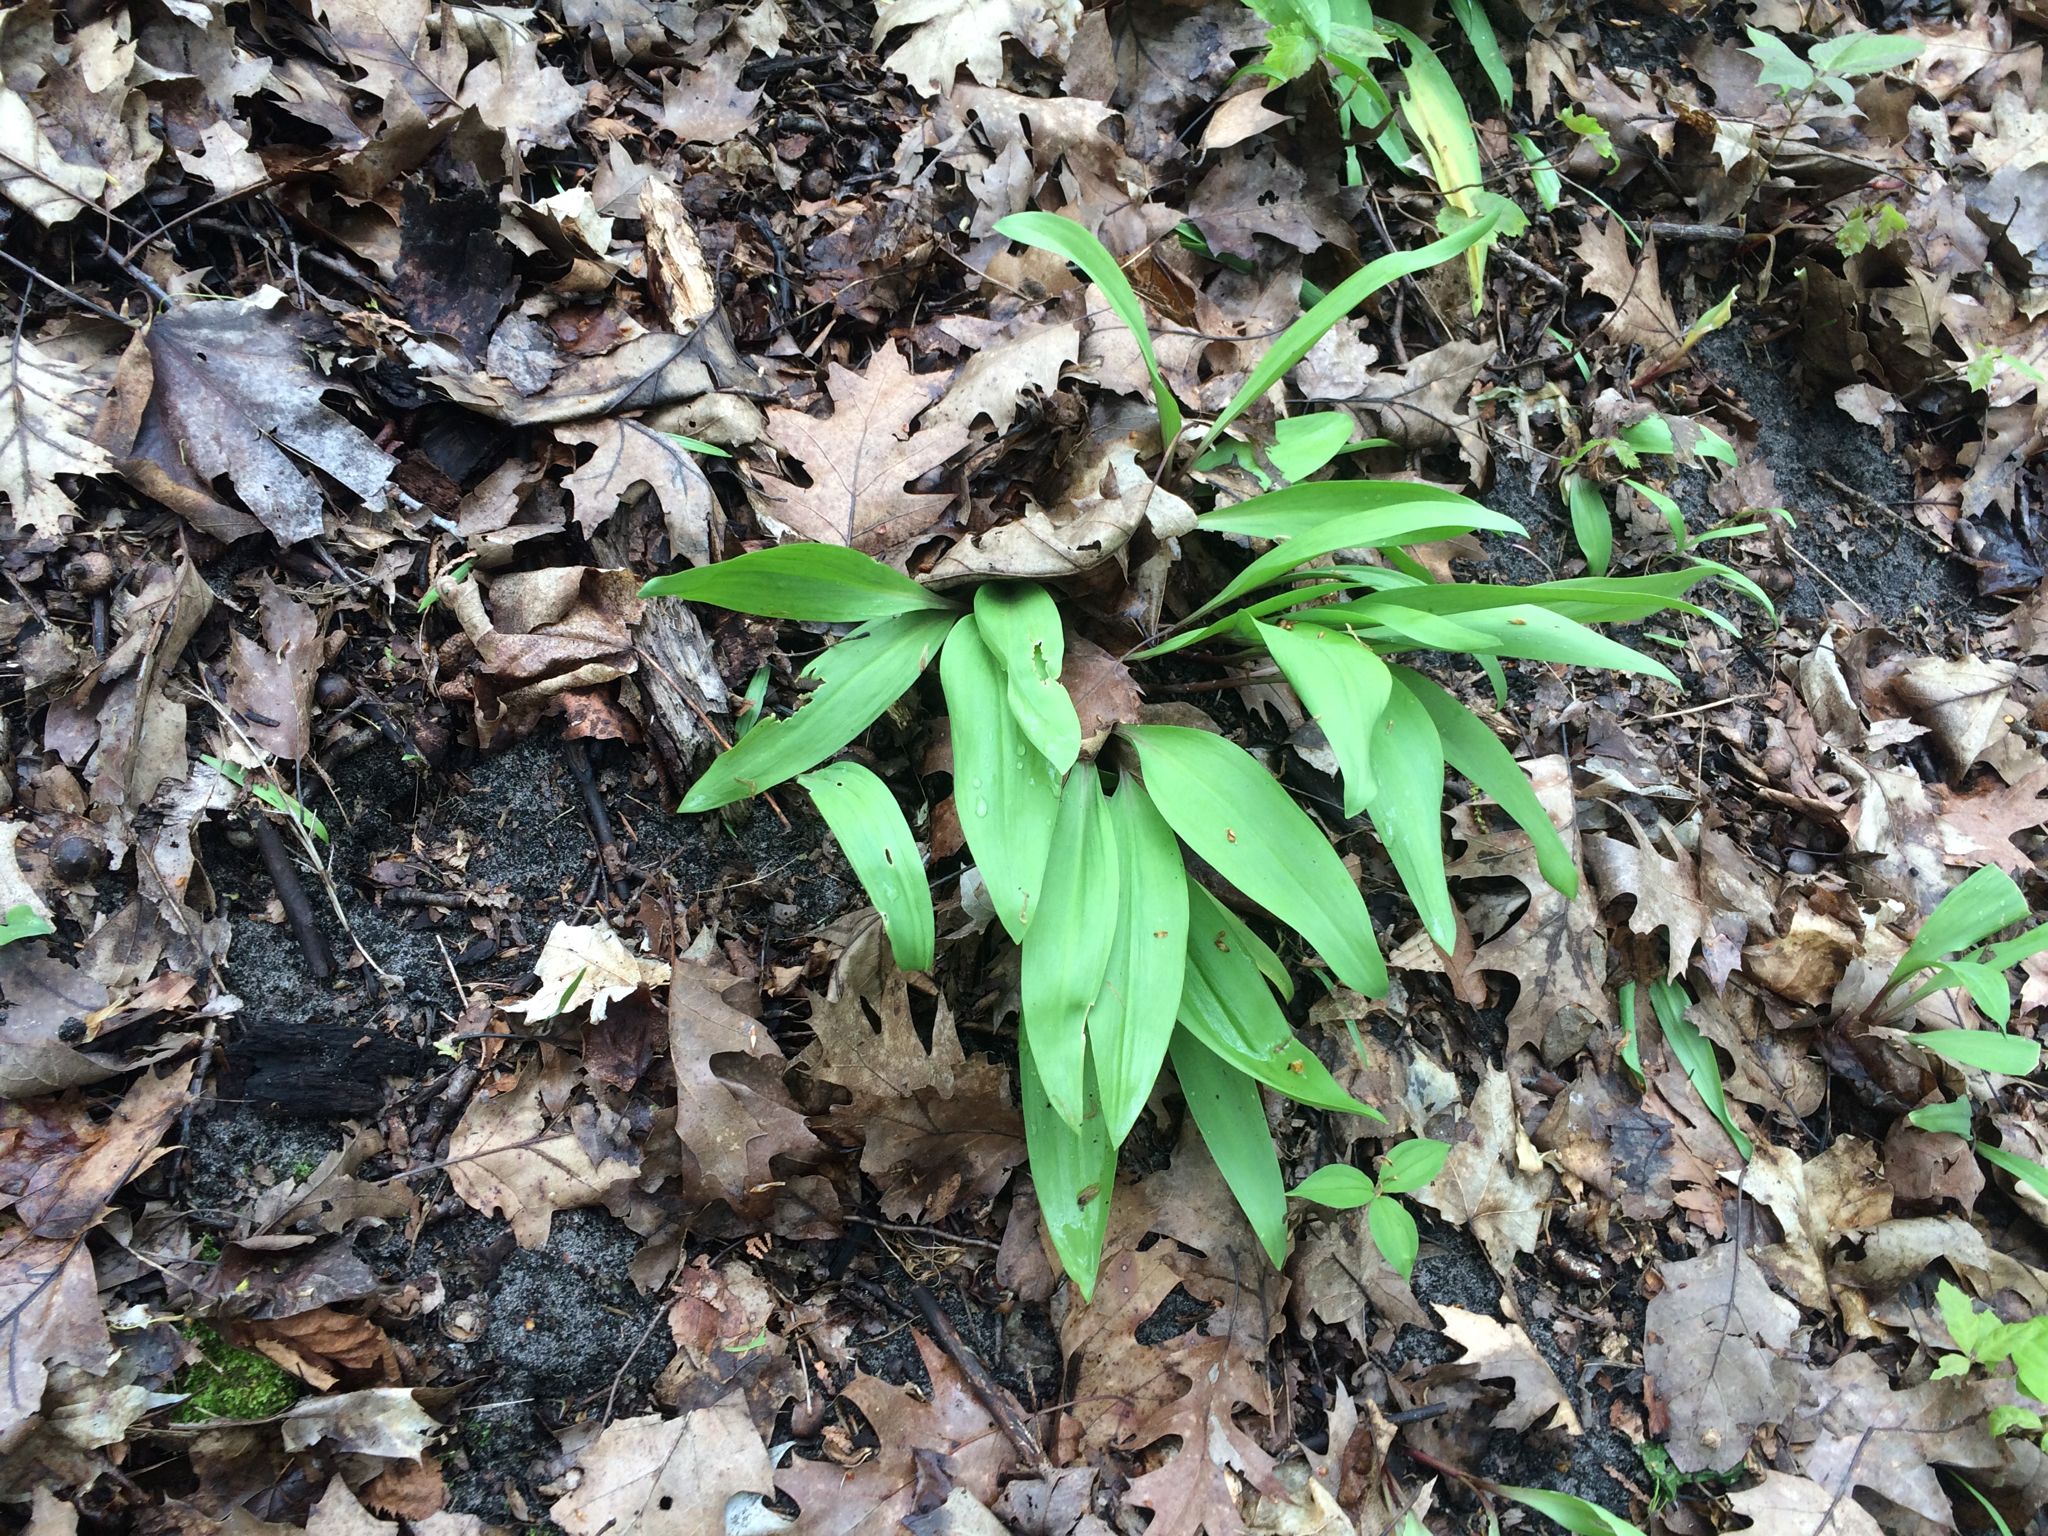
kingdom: Plantae
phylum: Tracheophyta
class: Liliopsida
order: Asparagales
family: Amaryllidaceae
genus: Allium
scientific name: Allium tricoccum
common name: Ramp
